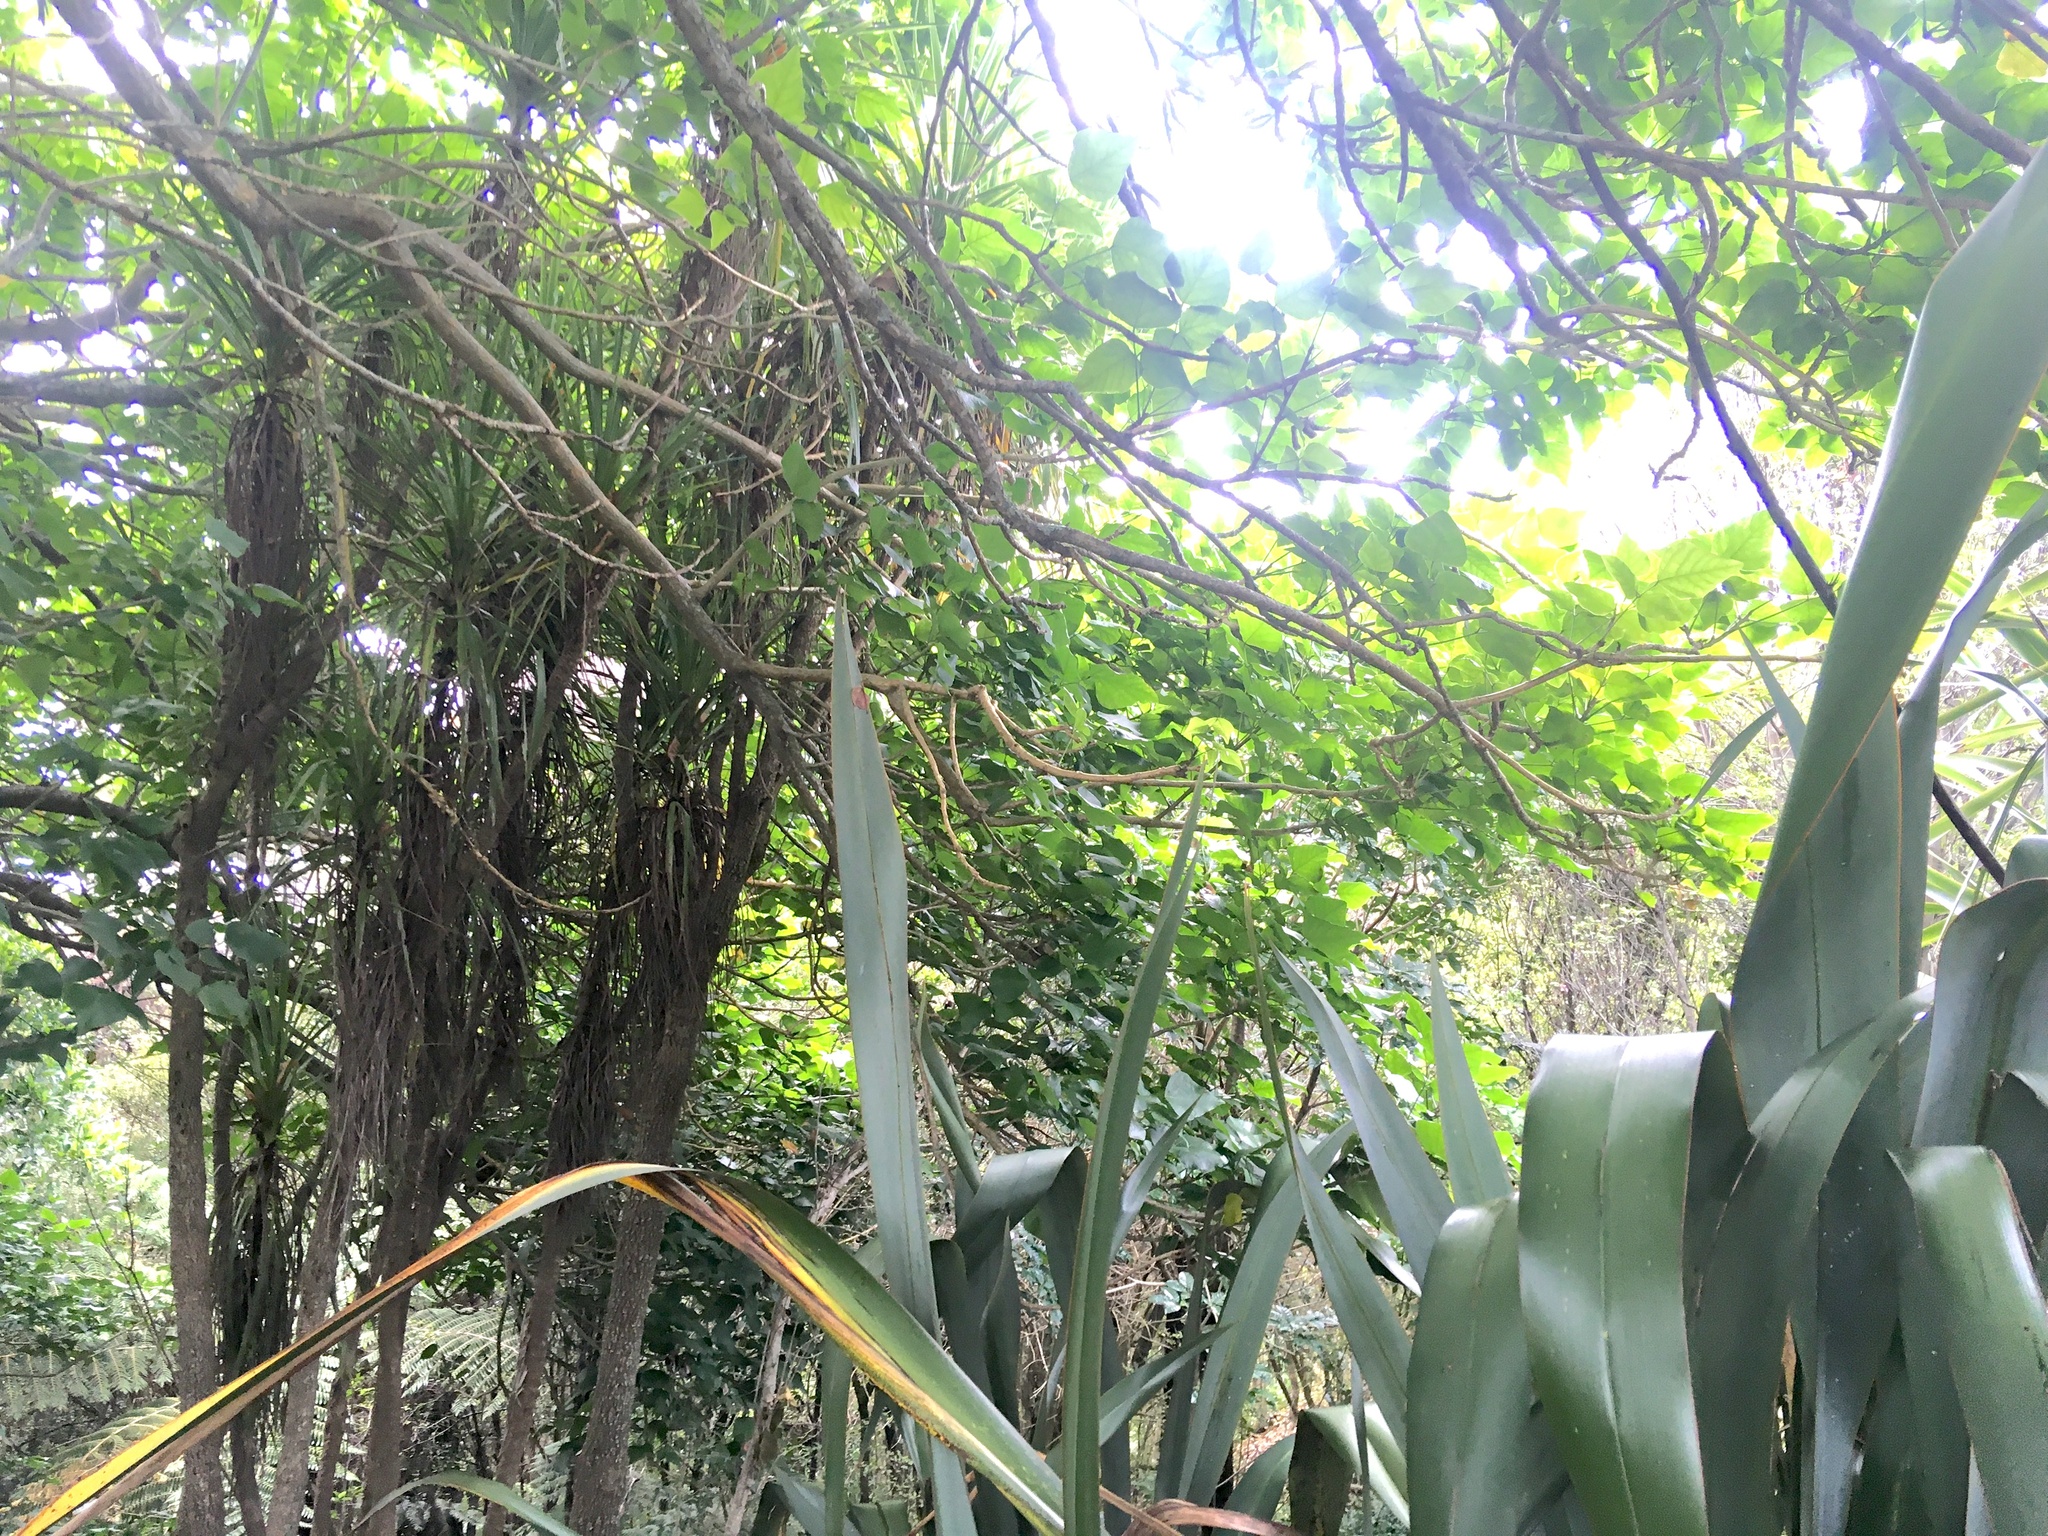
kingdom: Plantae
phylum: Tracheophyta
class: Liliopsida
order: Asparagales
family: Asparagaceae
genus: Cordyline
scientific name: Cordyline australis
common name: Cabbage-palm
